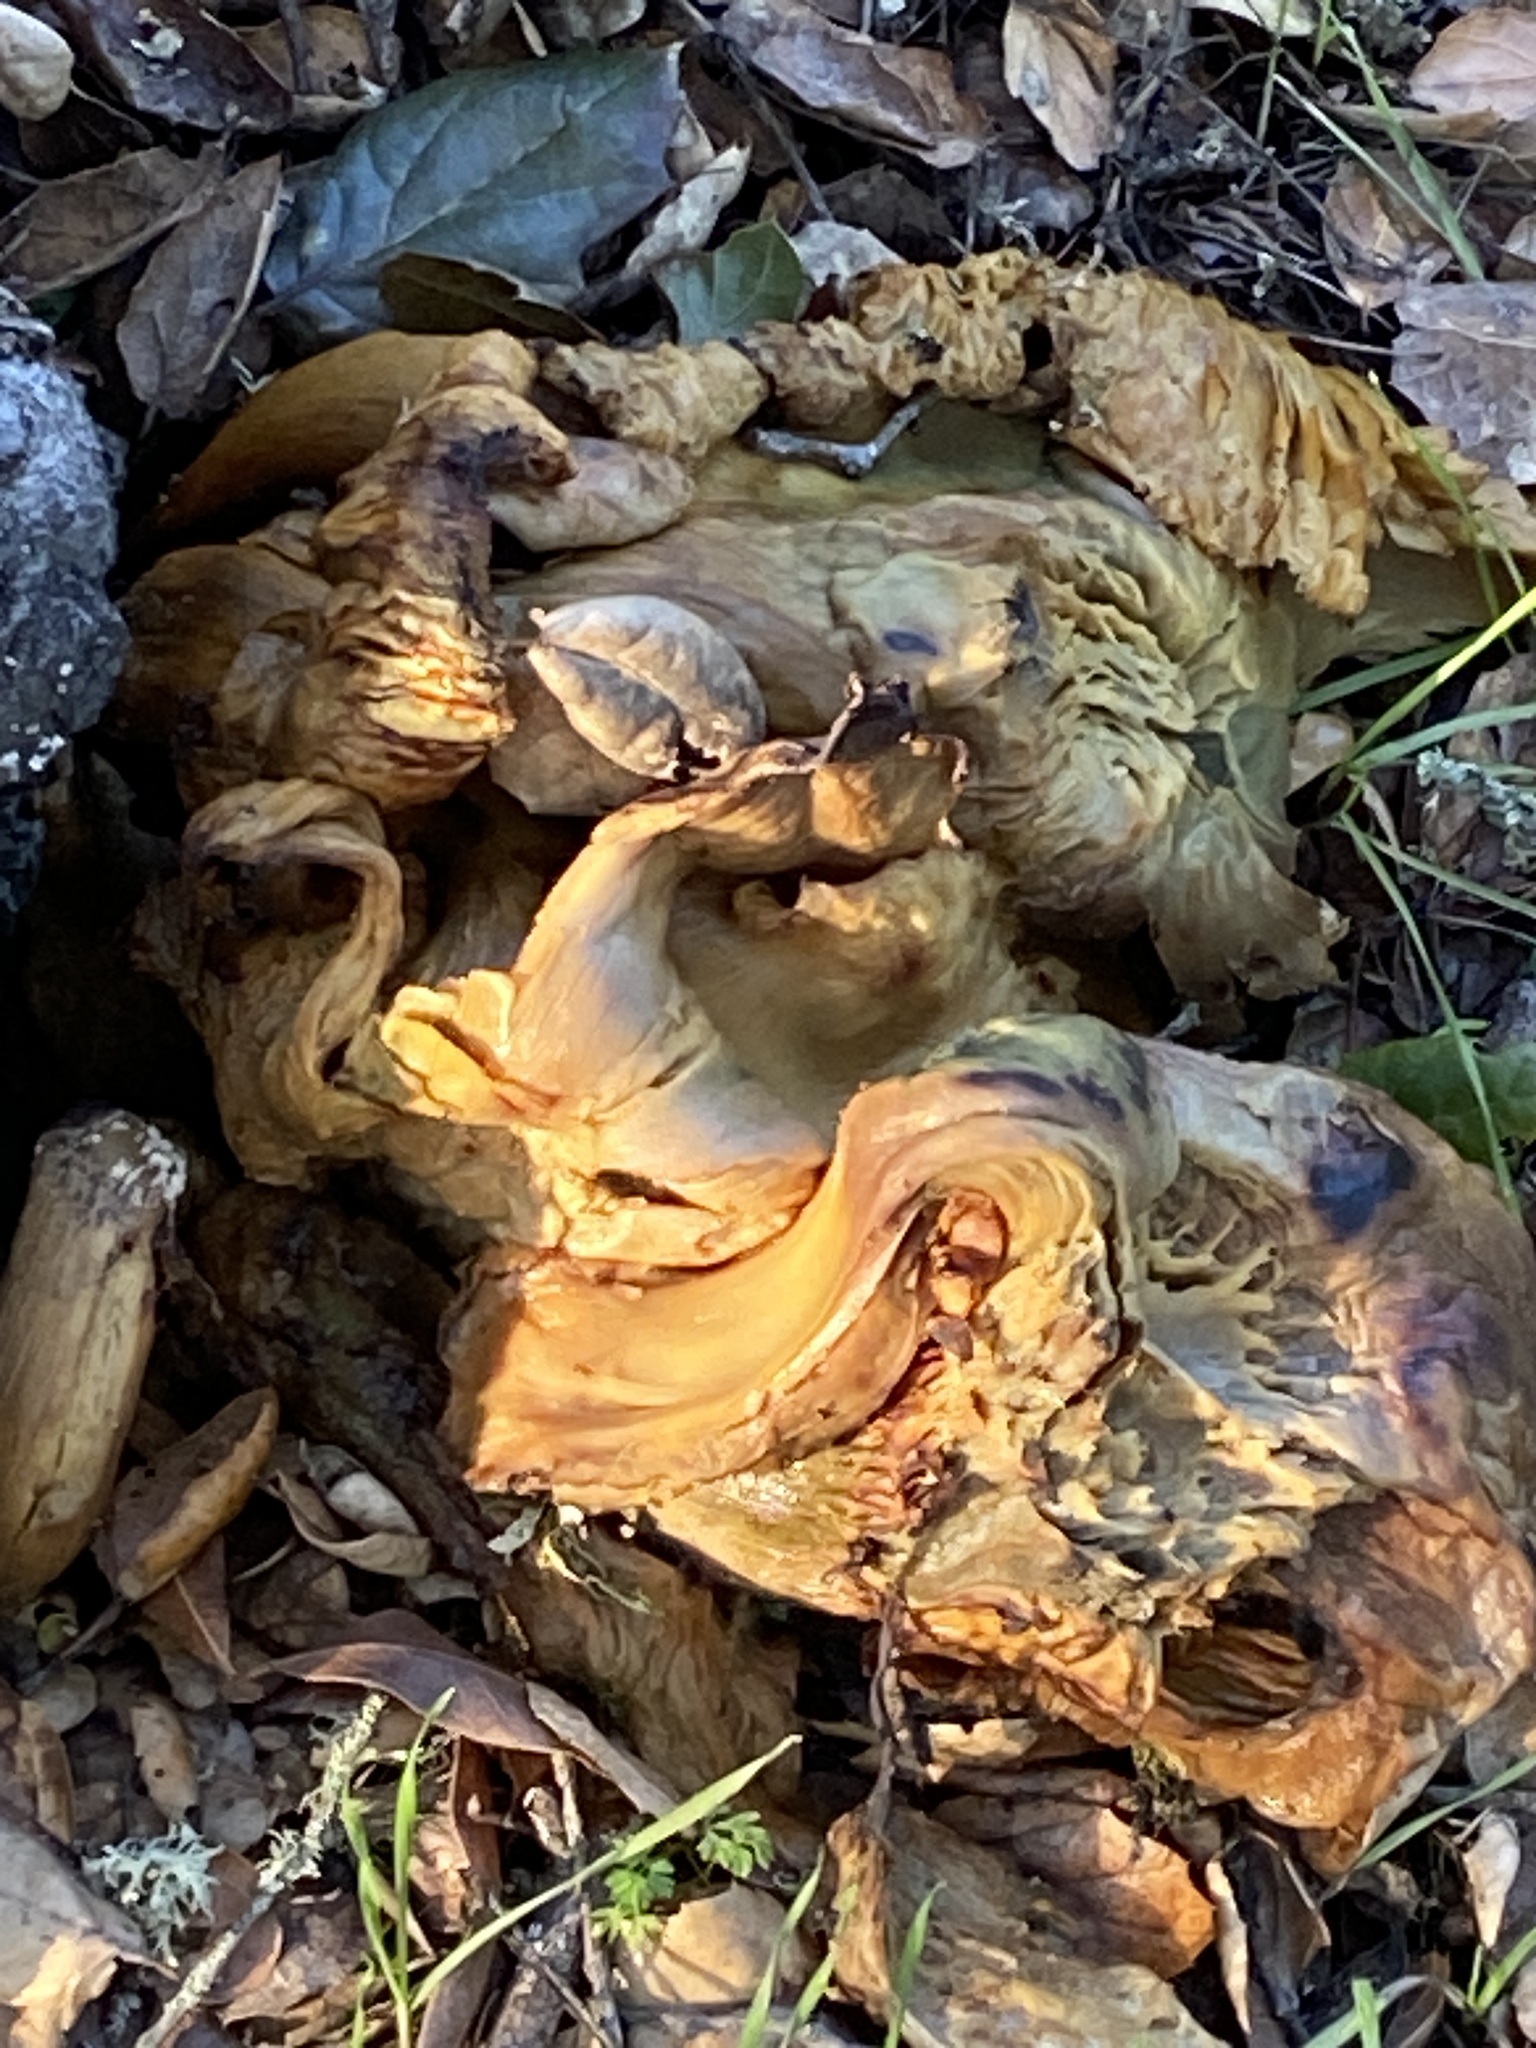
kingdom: Fungi
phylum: Basidiomycota
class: Agaricomycetes
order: Agaricales
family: Omphalotaceae
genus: Omphalotus
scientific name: Omphalotus olivascens
